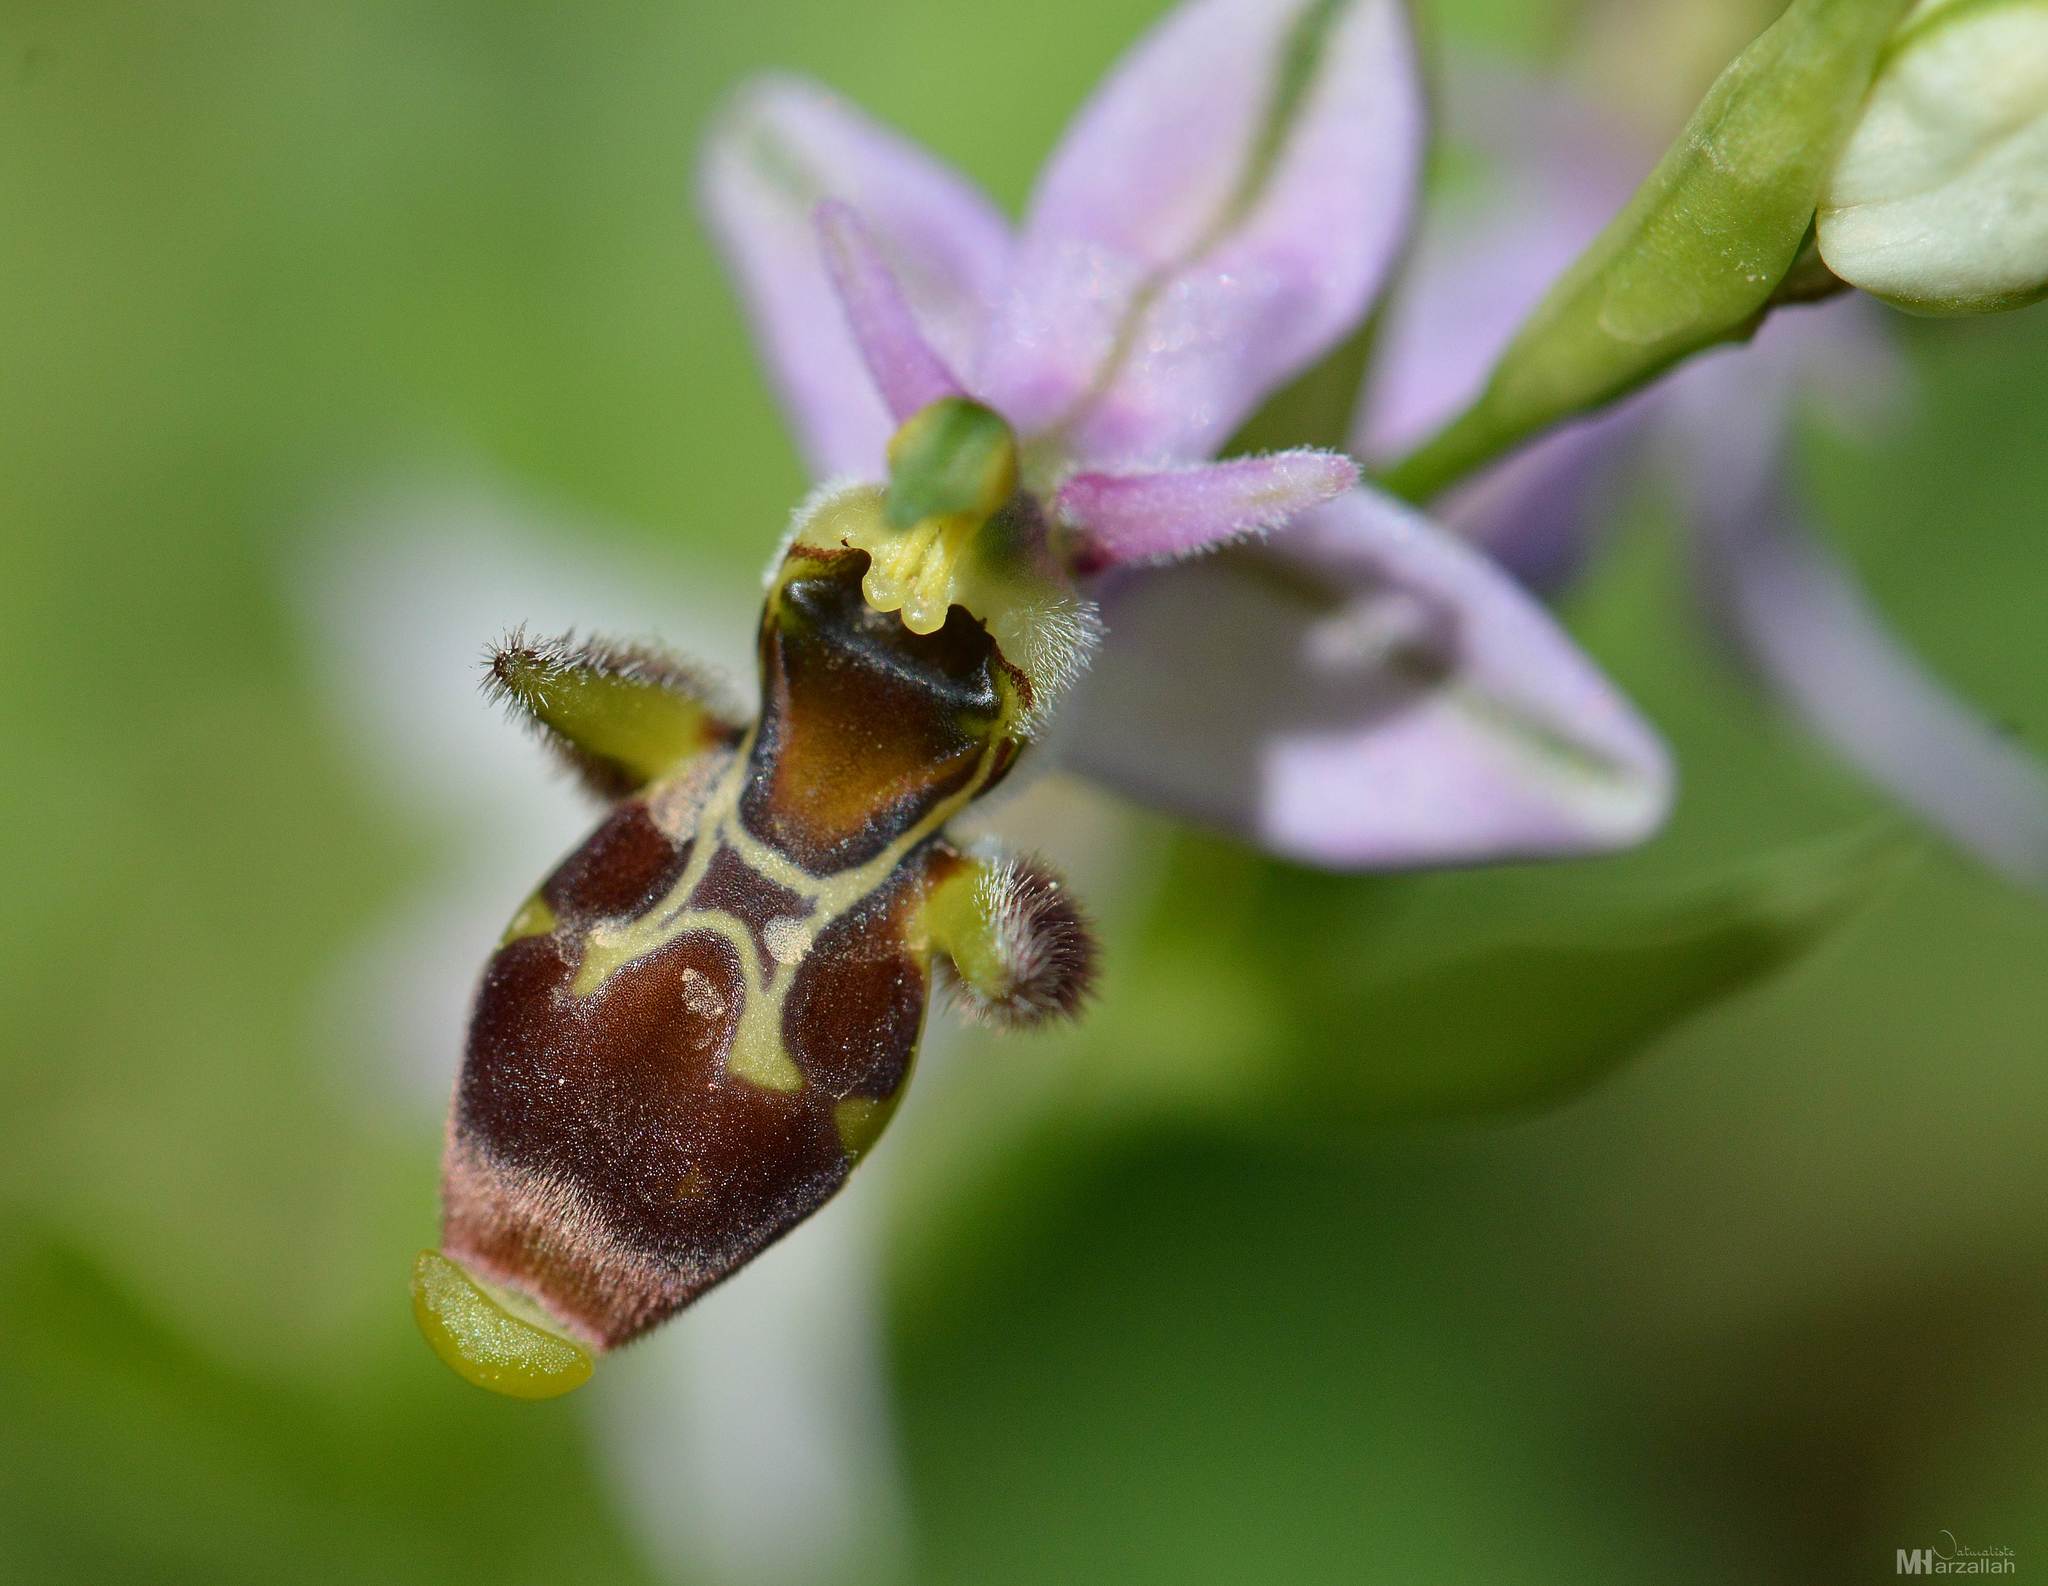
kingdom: Plantae
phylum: Tracheophyta
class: Liliopsida
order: Asparagales
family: Orchidaceae
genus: Ophrys
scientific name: Ophrys scolopax
